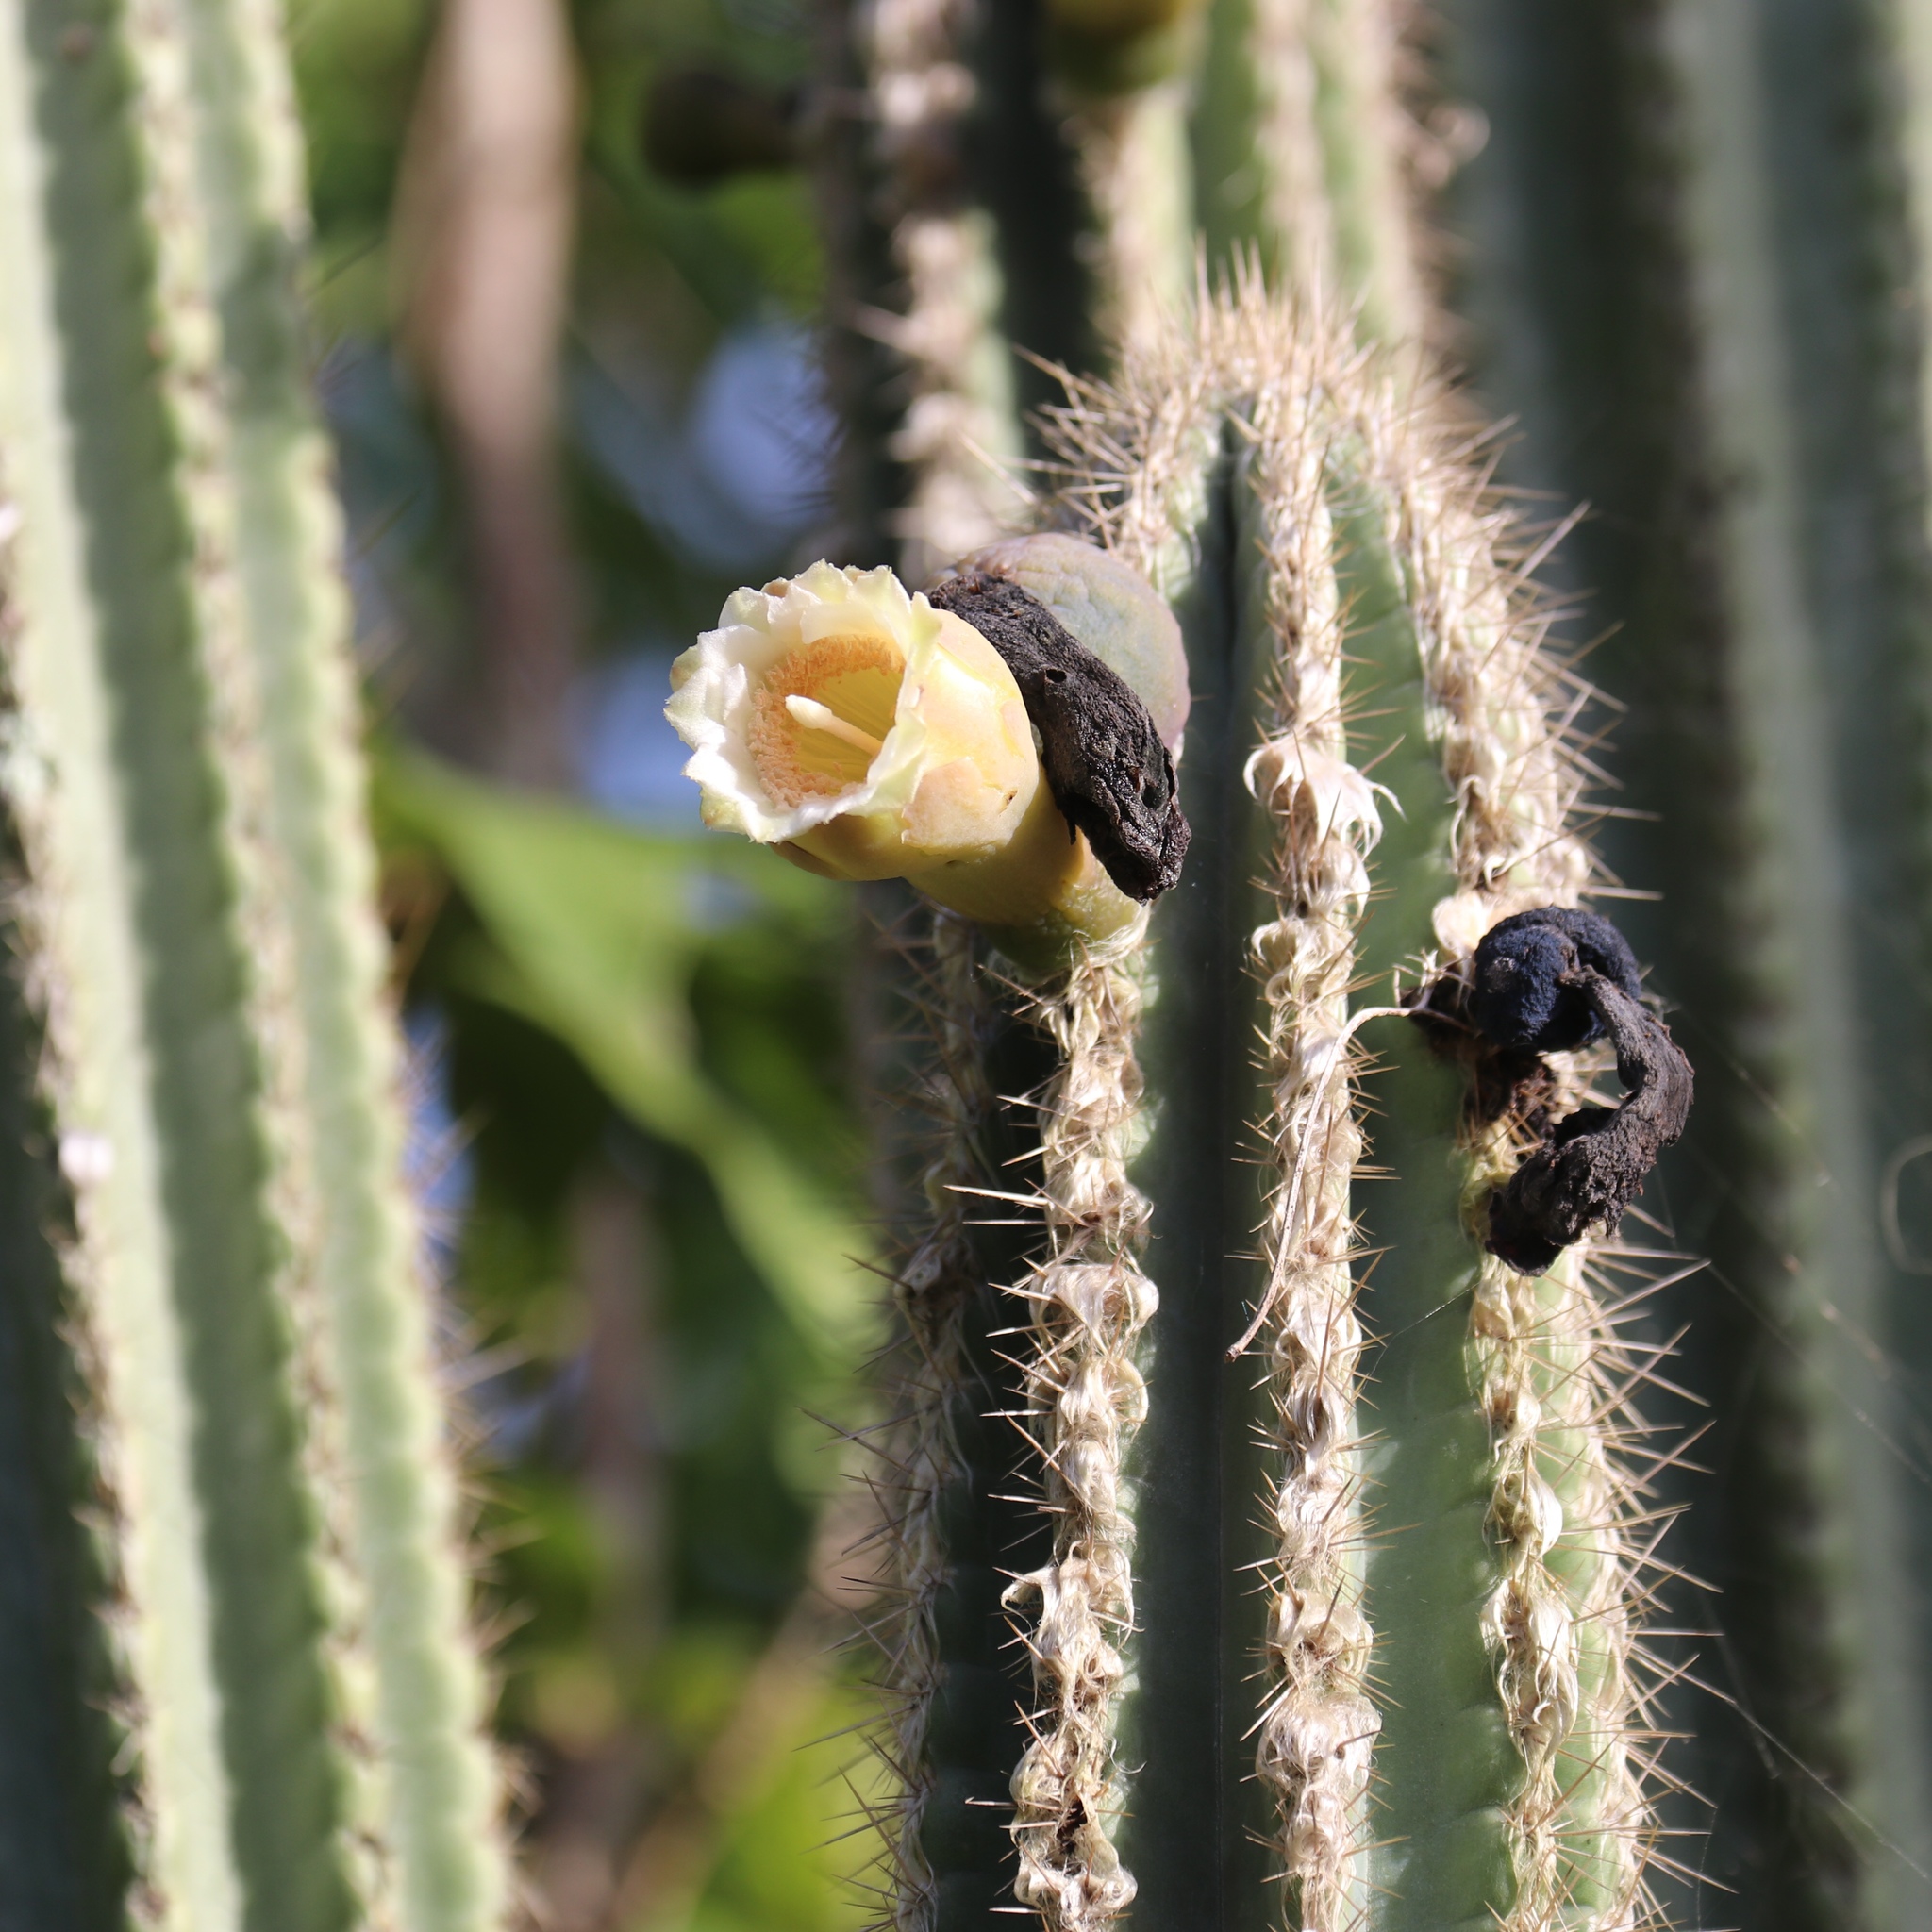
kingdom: Plantae
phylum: Tracheophyta
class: Magnoliopsida
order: Caryophyllales
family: Cactaceae
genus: Pilosocereus
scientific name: Pilosocereus polygonus
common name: Key tree cactus
